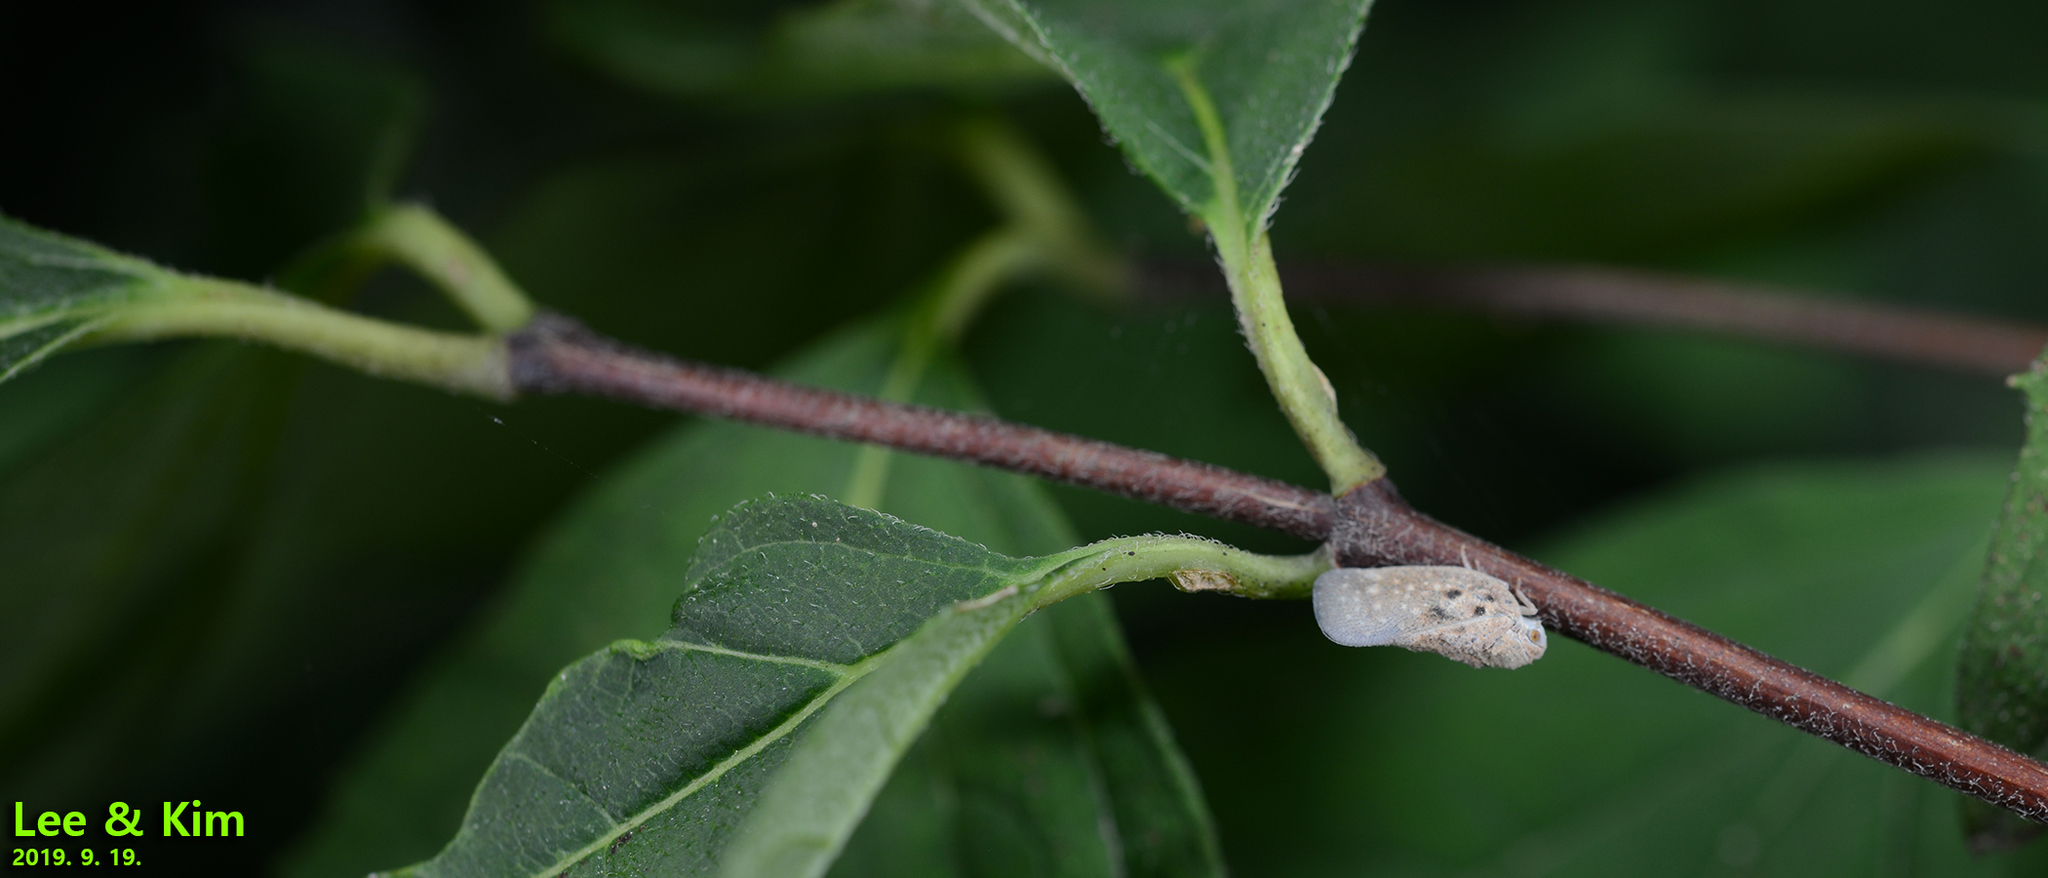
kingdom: Animalia
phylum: Arthropoda
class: Insecta
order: Hemiptera
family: Flatidae
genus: Metcalfa
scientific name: Metcalfa pruinosa
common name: Citrus flatid planthopper
